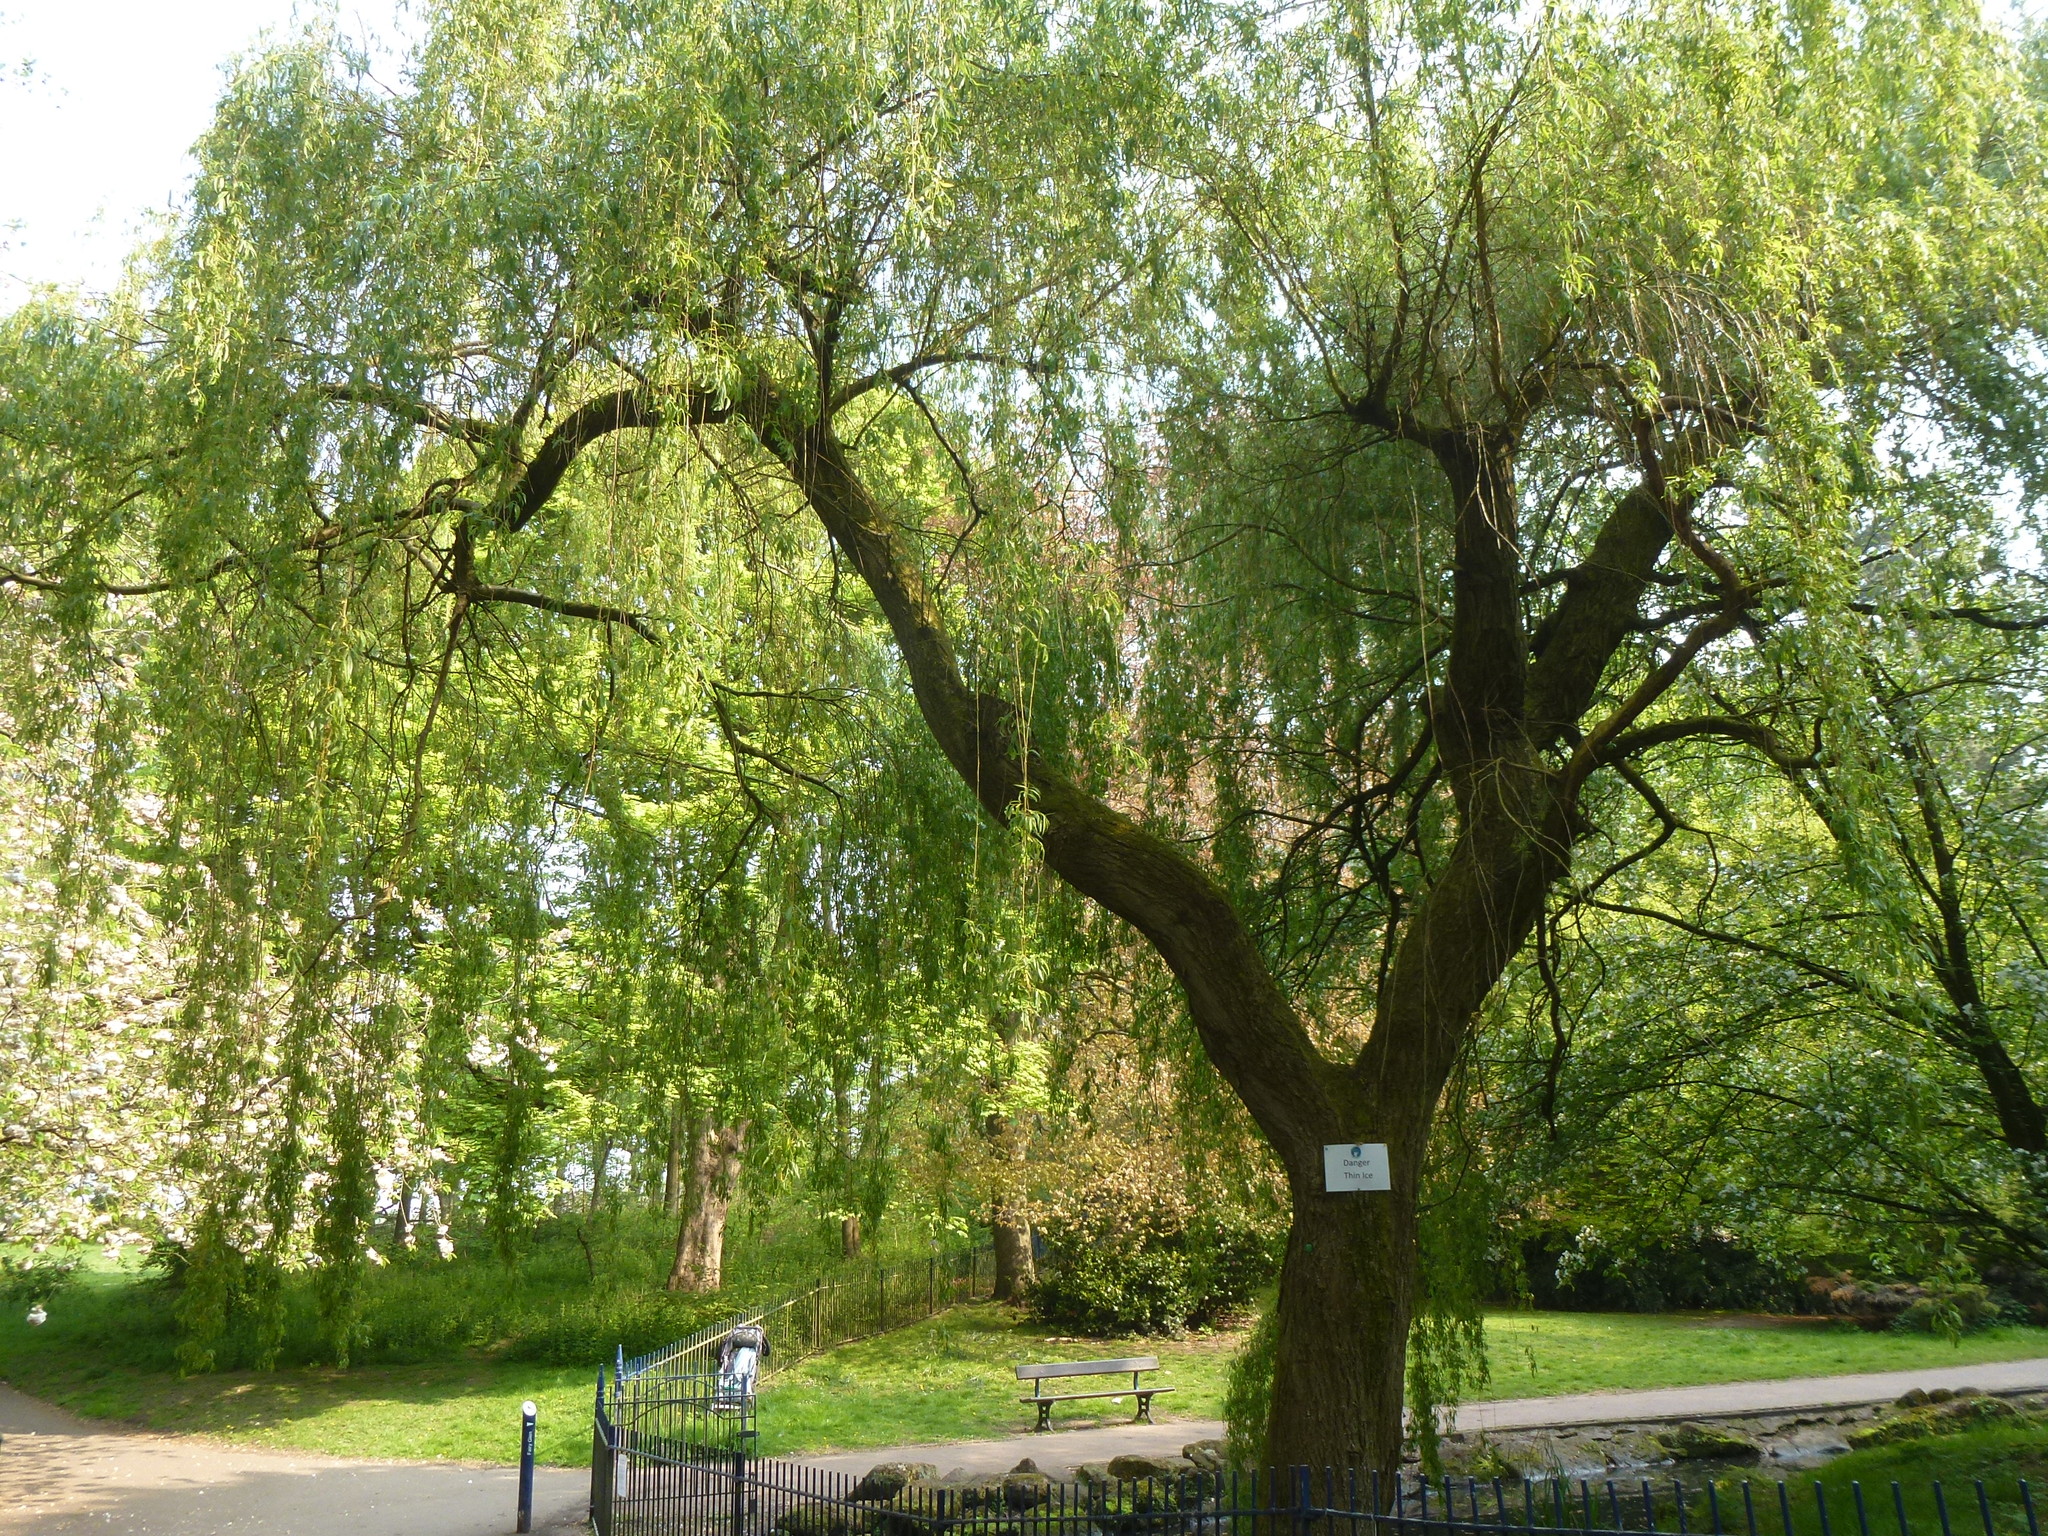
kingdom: Plantae
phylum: Tracheophyta
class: Magnoliopsida
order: Malpighiales
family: Salicaceae
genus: Salix
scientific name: Salix pendulina
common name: Wisconsin weeping willow
